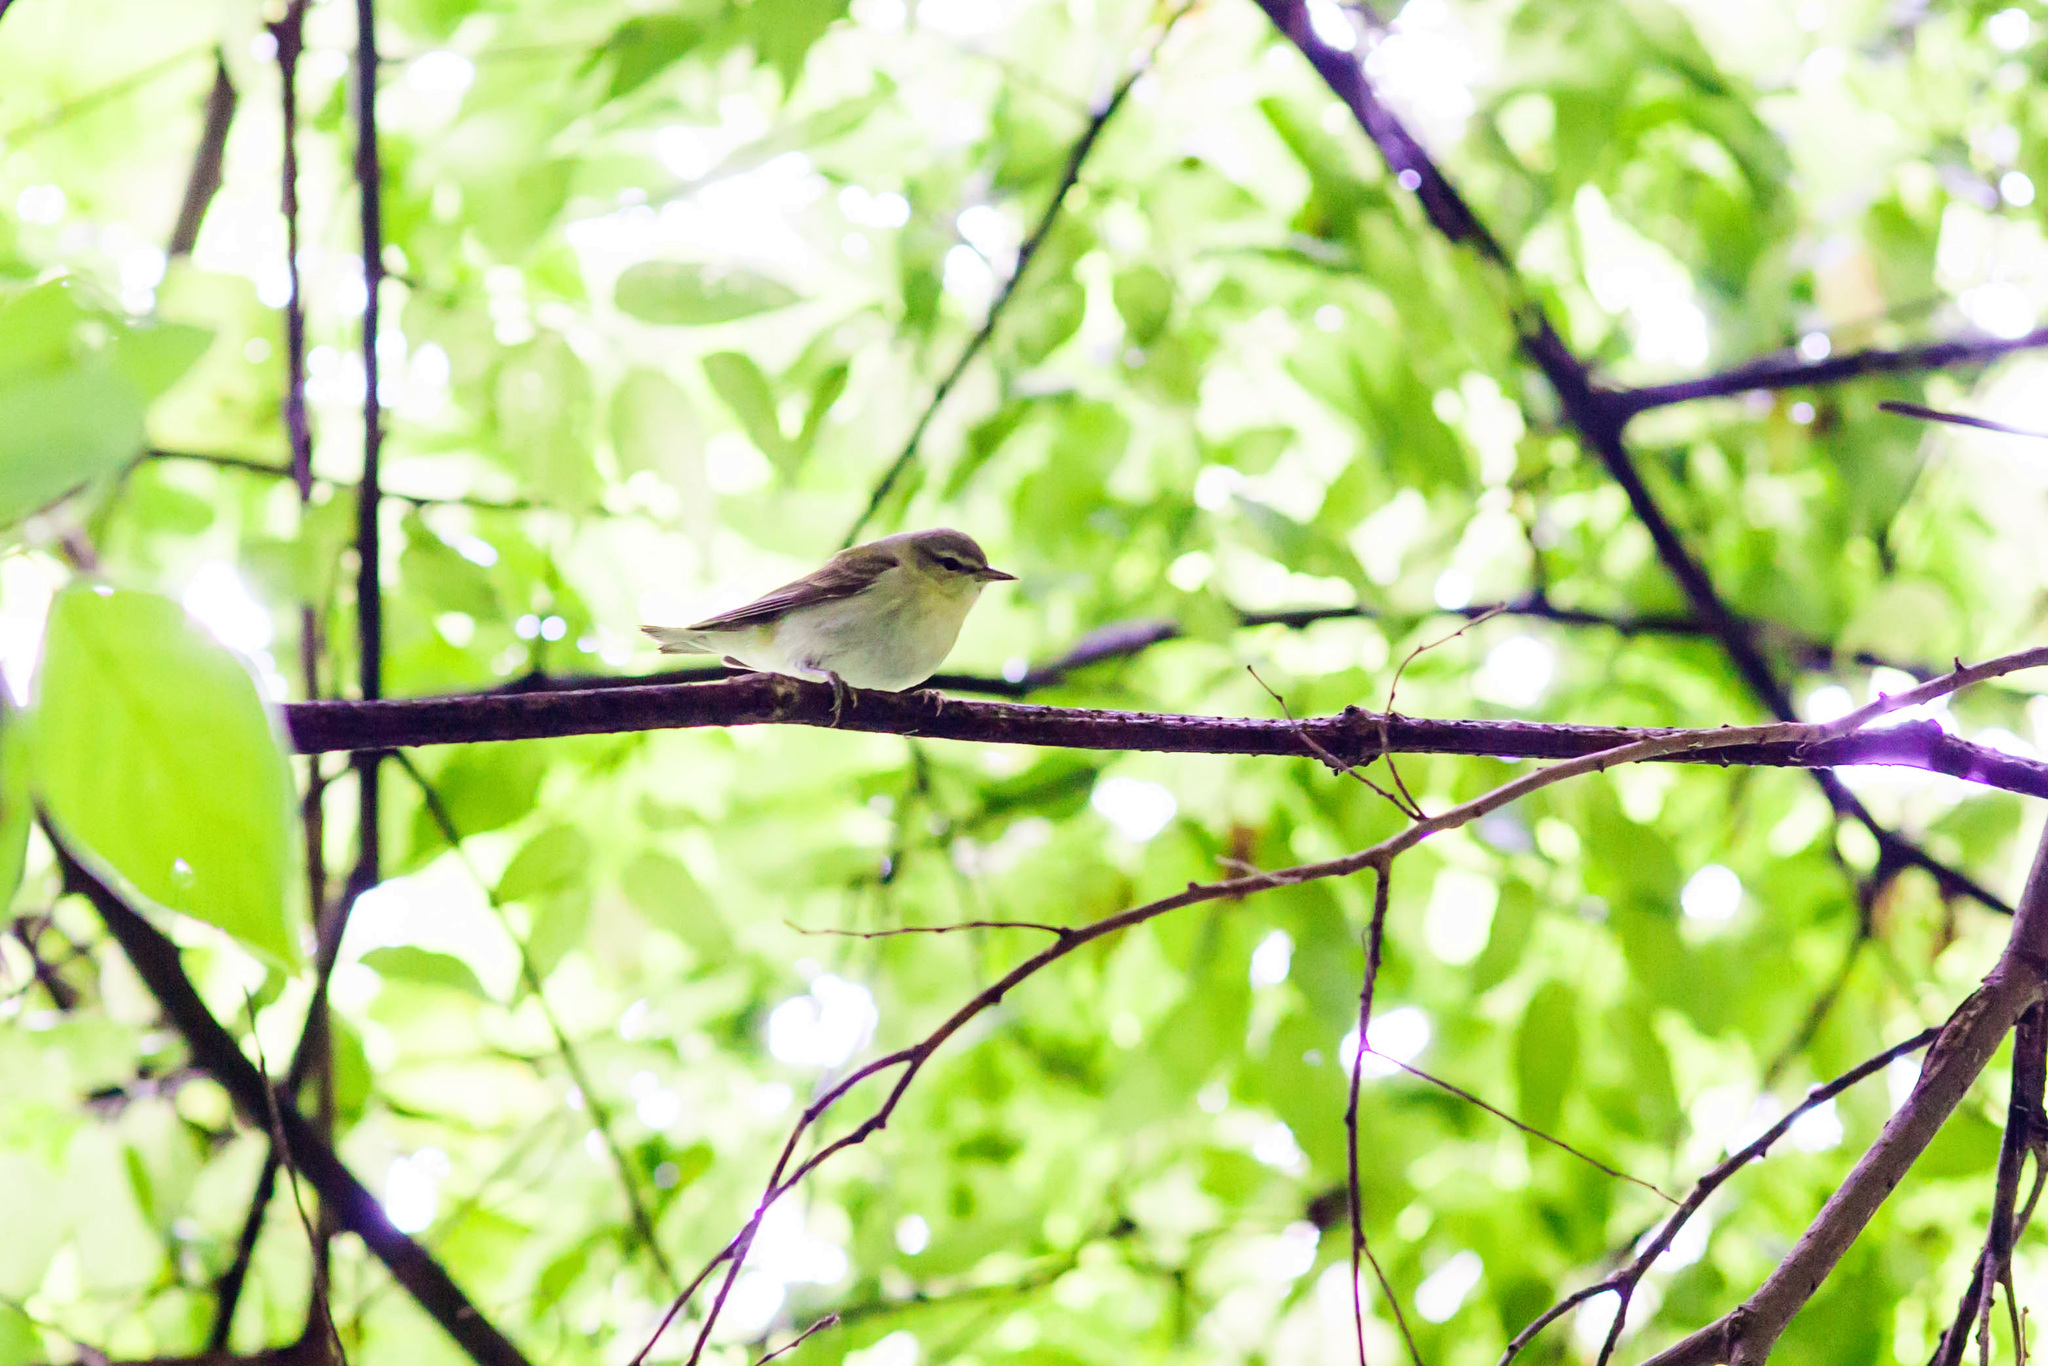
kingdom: Animalia
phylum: Chordata
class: Aves
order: Passeriformes
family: Parulidae
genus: Leiothlypis
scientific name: Leiothlypis peregrina
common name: Tennessee warbler
